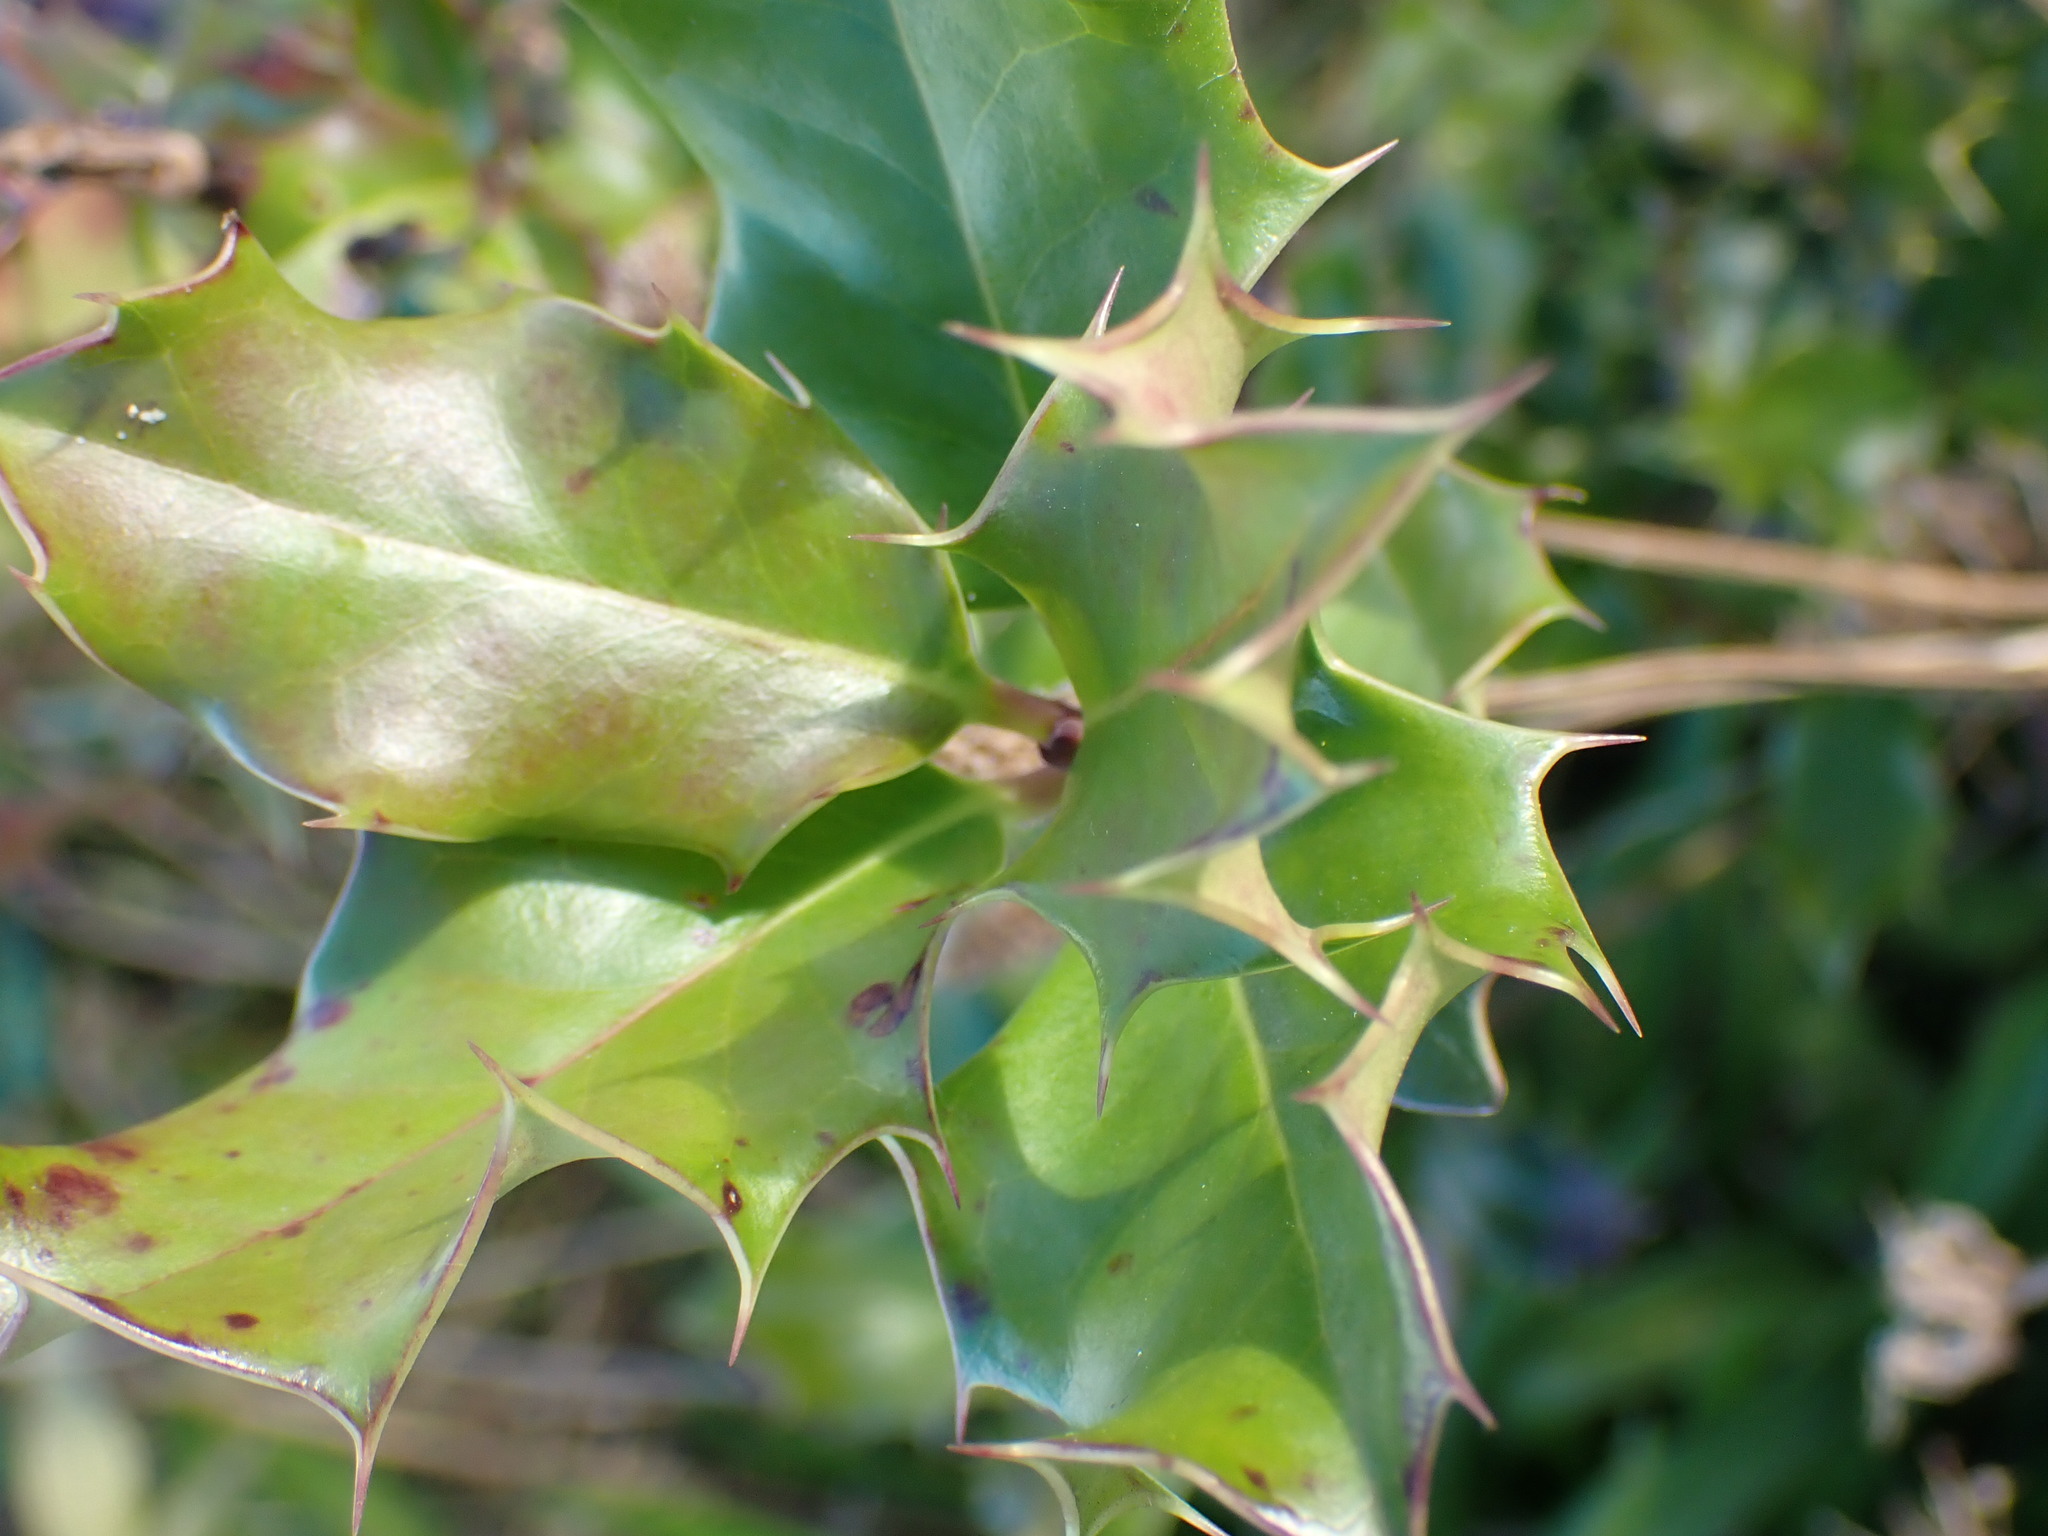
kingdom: Plantae
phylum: Tracheophyta
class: Magnoliopsida
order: Aquifoliales
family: Aquifoliaceae
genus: Ilex
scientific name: Ilex aquifolium
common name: English holly
